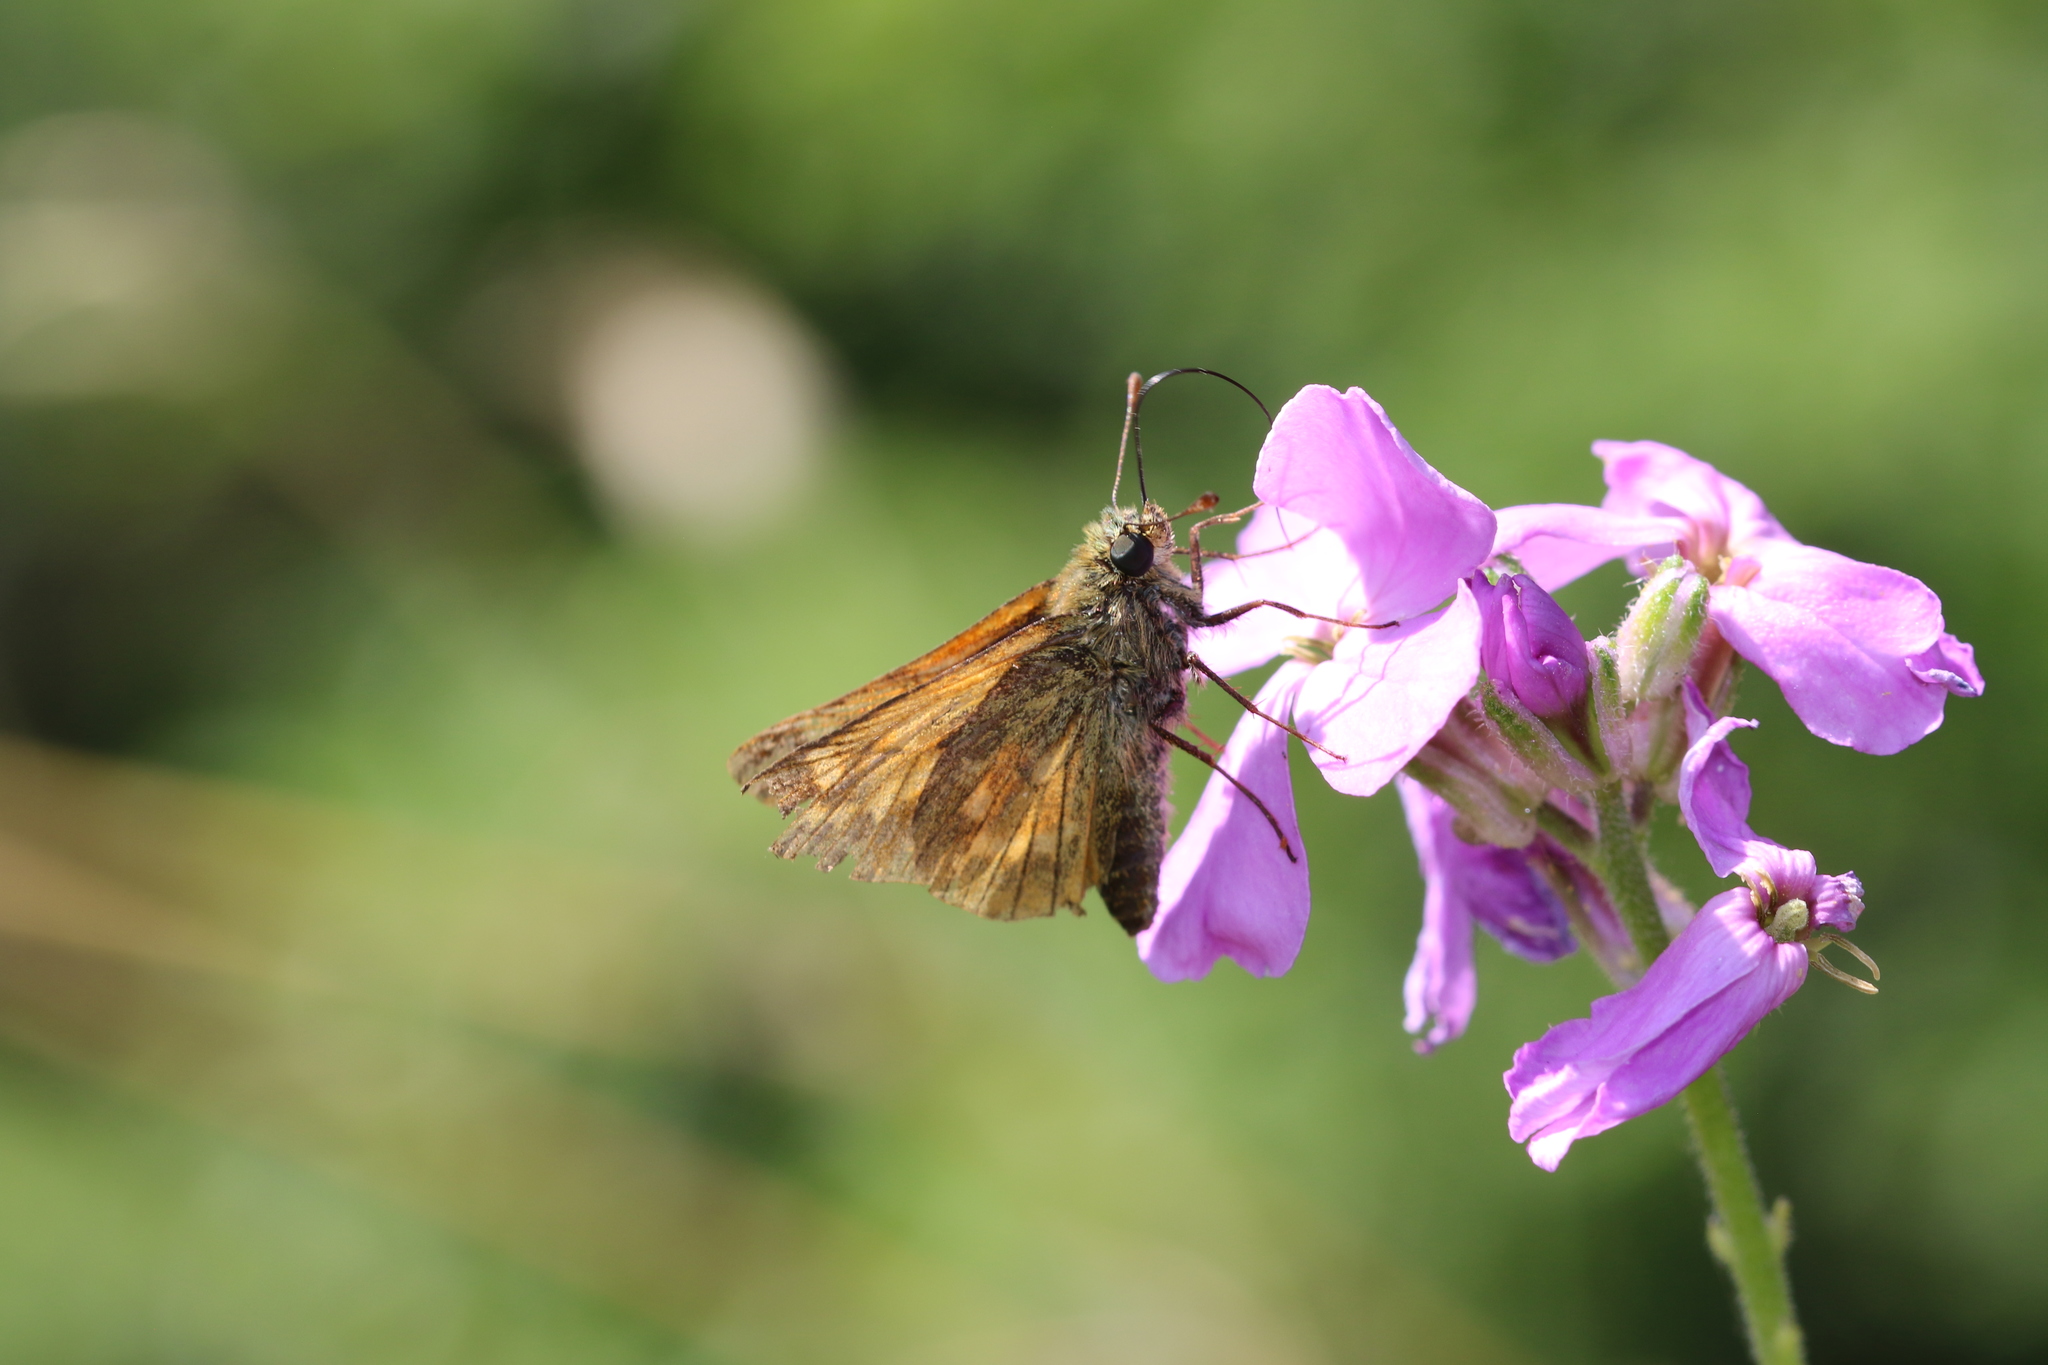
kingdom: Animalia
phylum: Arthropoda
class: Insecta
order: Lepidoptera
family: Hesperiidae
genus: Ochlodes
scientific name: Ochlodes venata
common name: Large skipper
